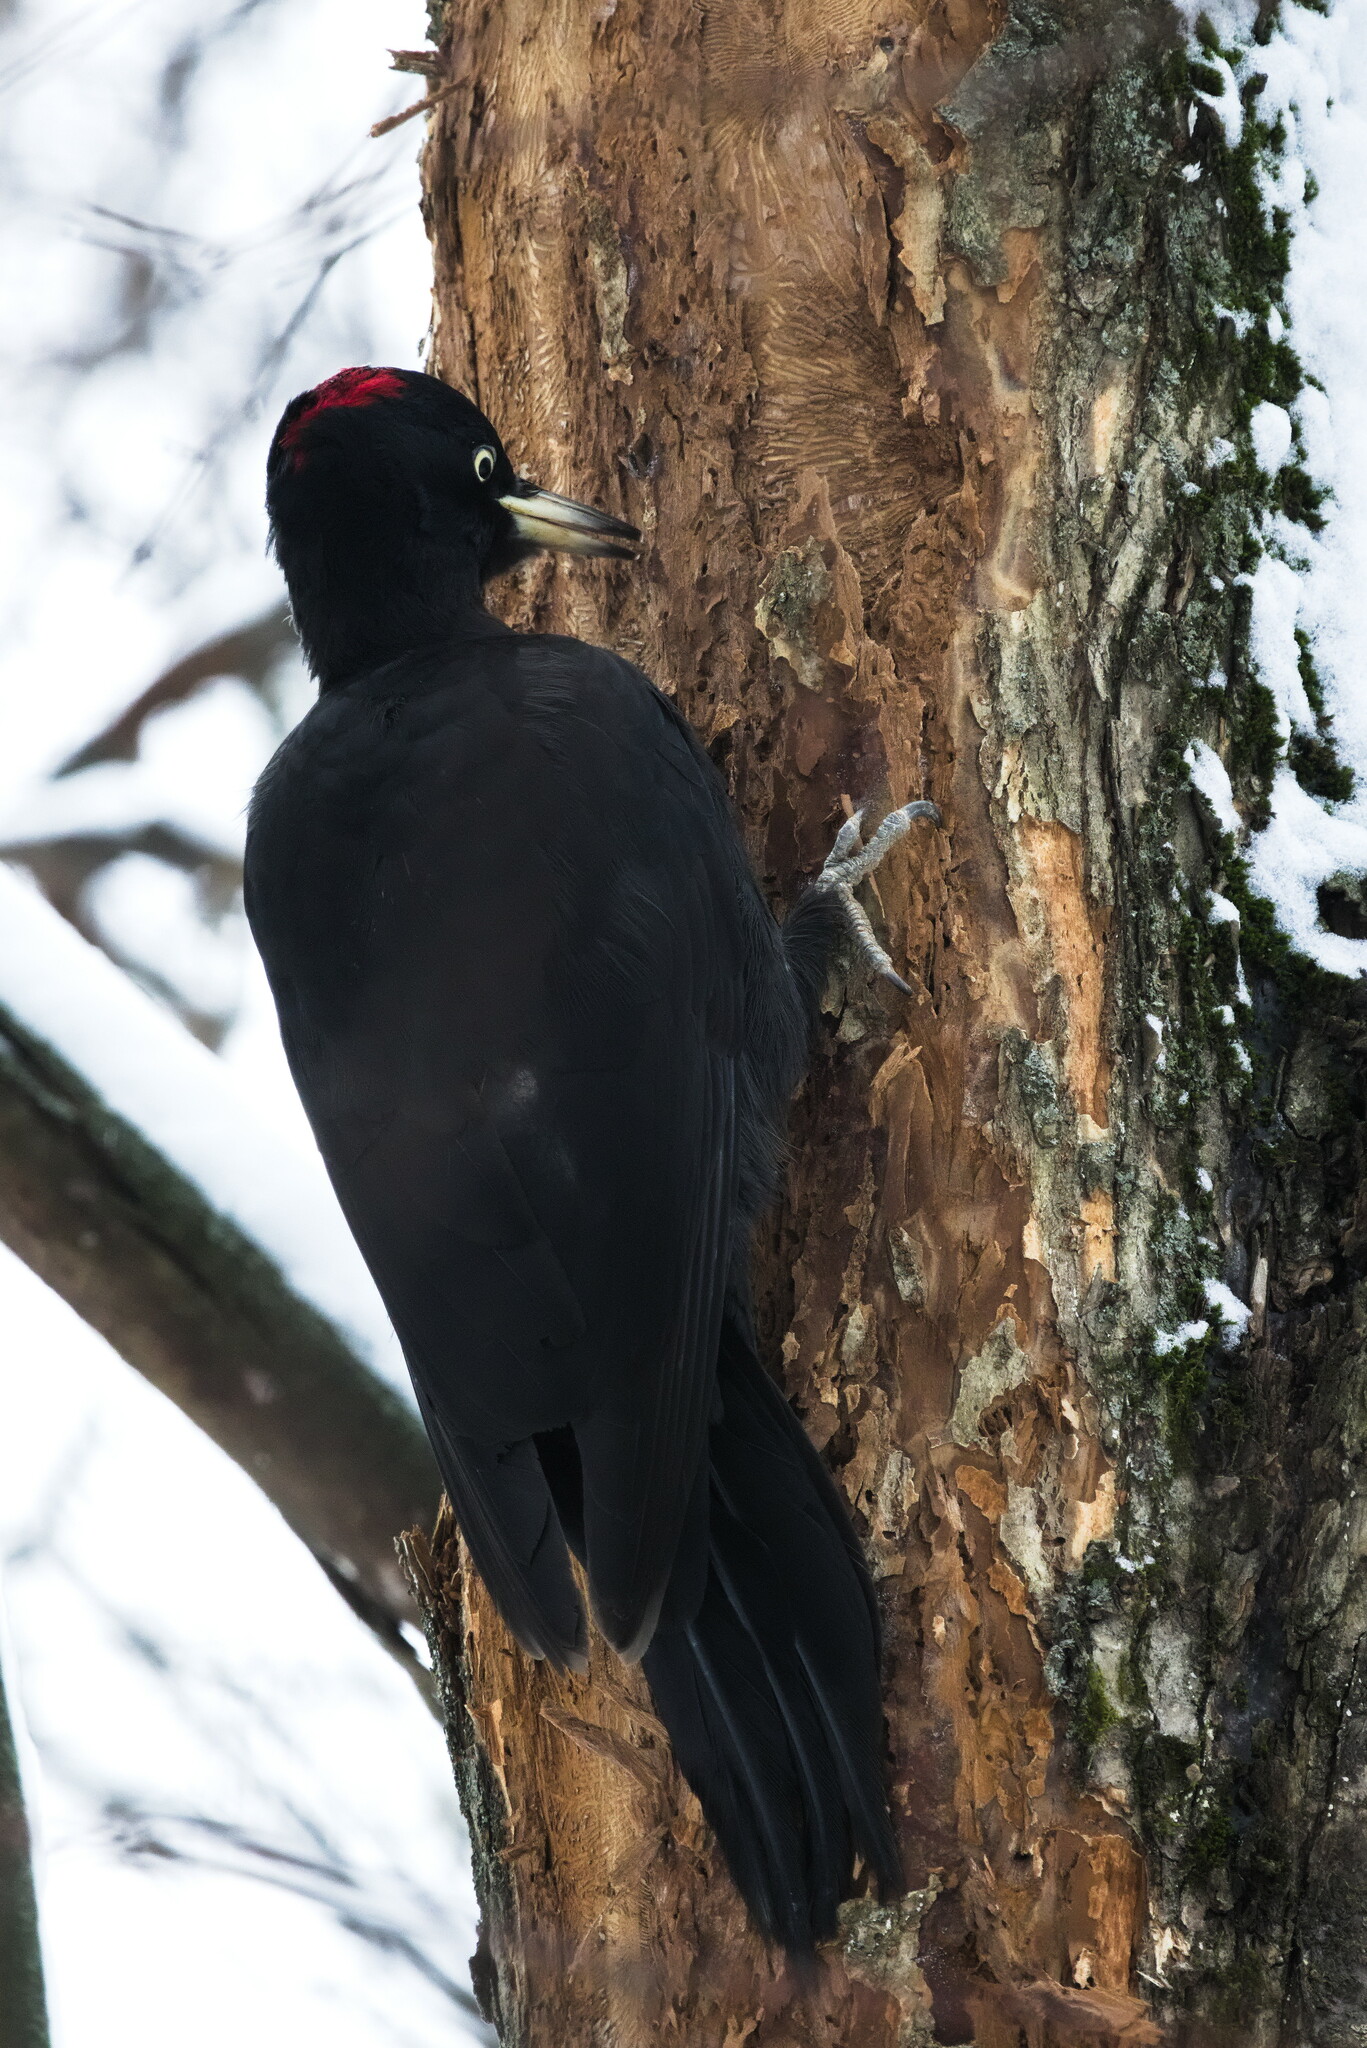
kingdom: Animalia
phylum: Chordata
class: Aves
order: Piciformes
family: Picidae
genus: Dryocopus
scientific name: Dryocopus martius
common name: Black woodpecker
